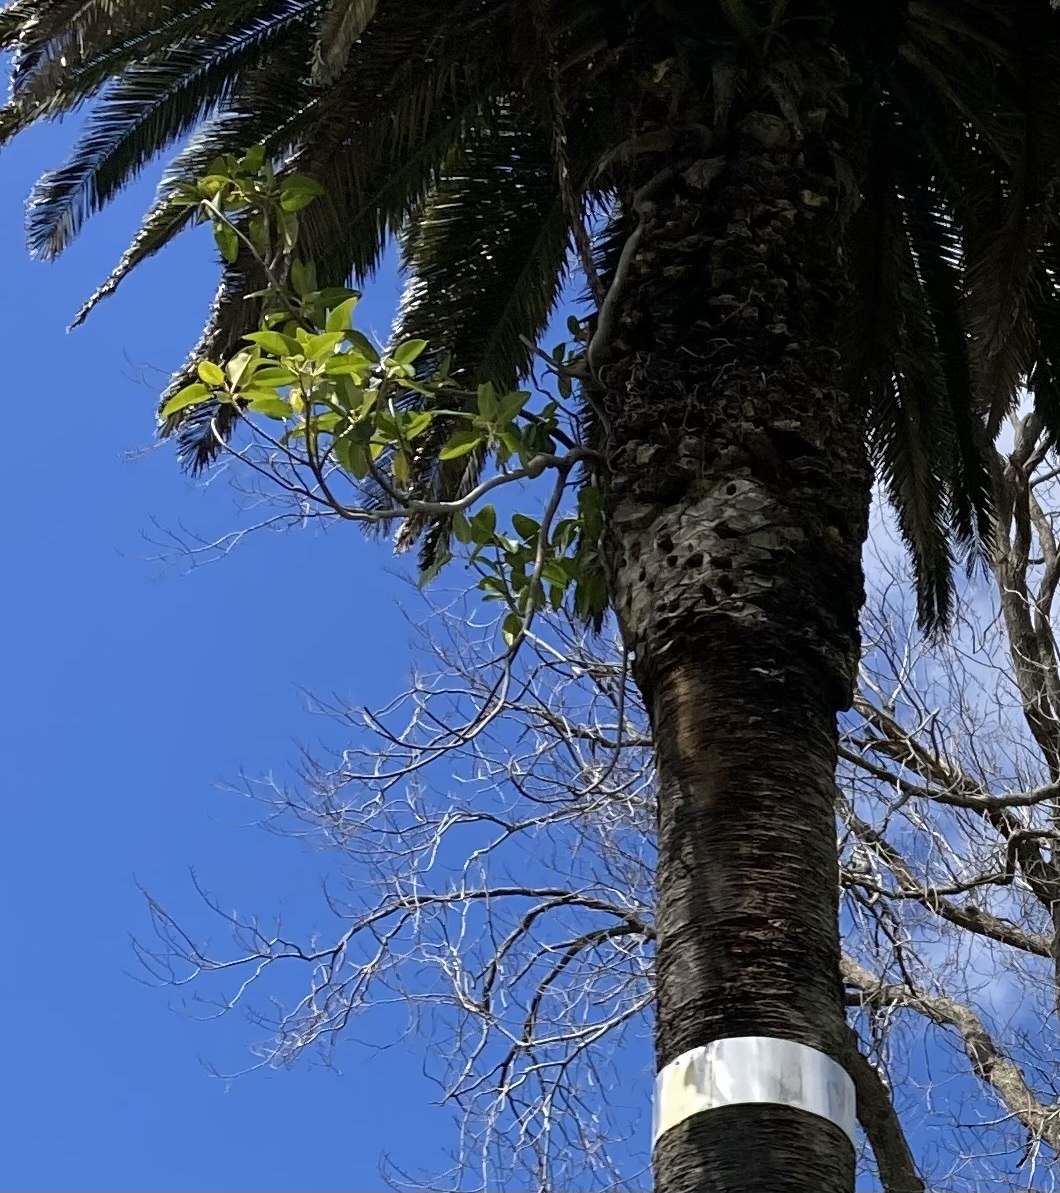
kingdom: Plantae
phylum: Tracheophyta
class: Magnoliopsida
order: Rosales
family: Moraceae
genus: Ficus
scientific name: Ficus macrophylla
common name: Moreton bay fig
